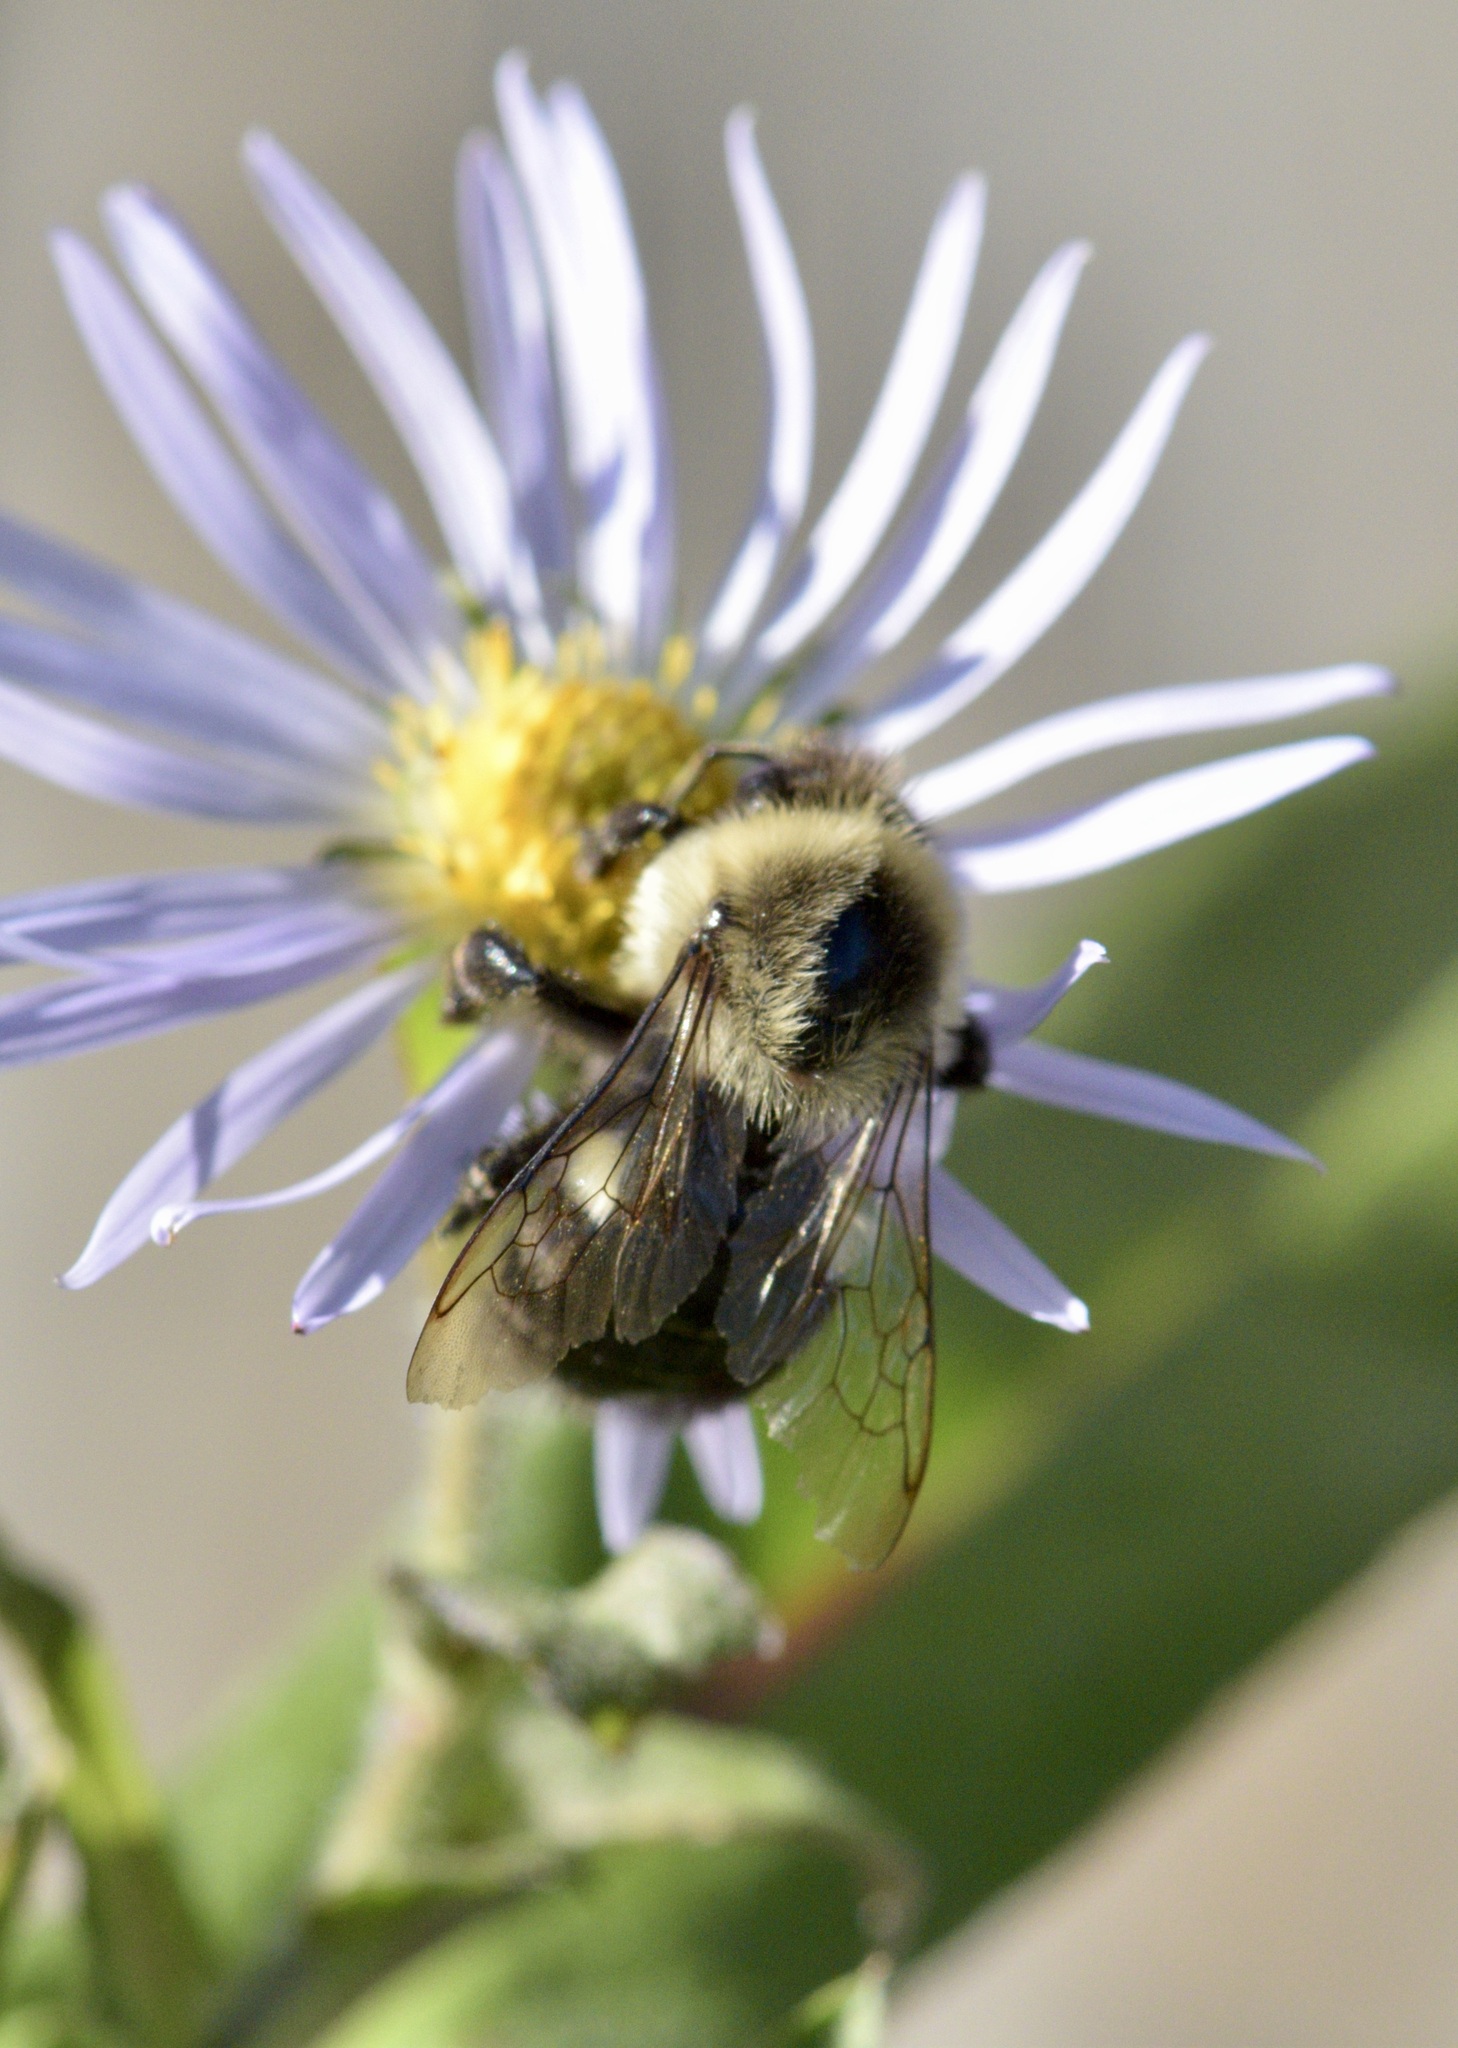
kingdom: Animalia
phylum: Arthropoda
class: Insecta
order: Hymenoptera
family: Apidae
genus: Bombus
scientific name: Bombus impatiens
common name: Common eastern bumble bee
